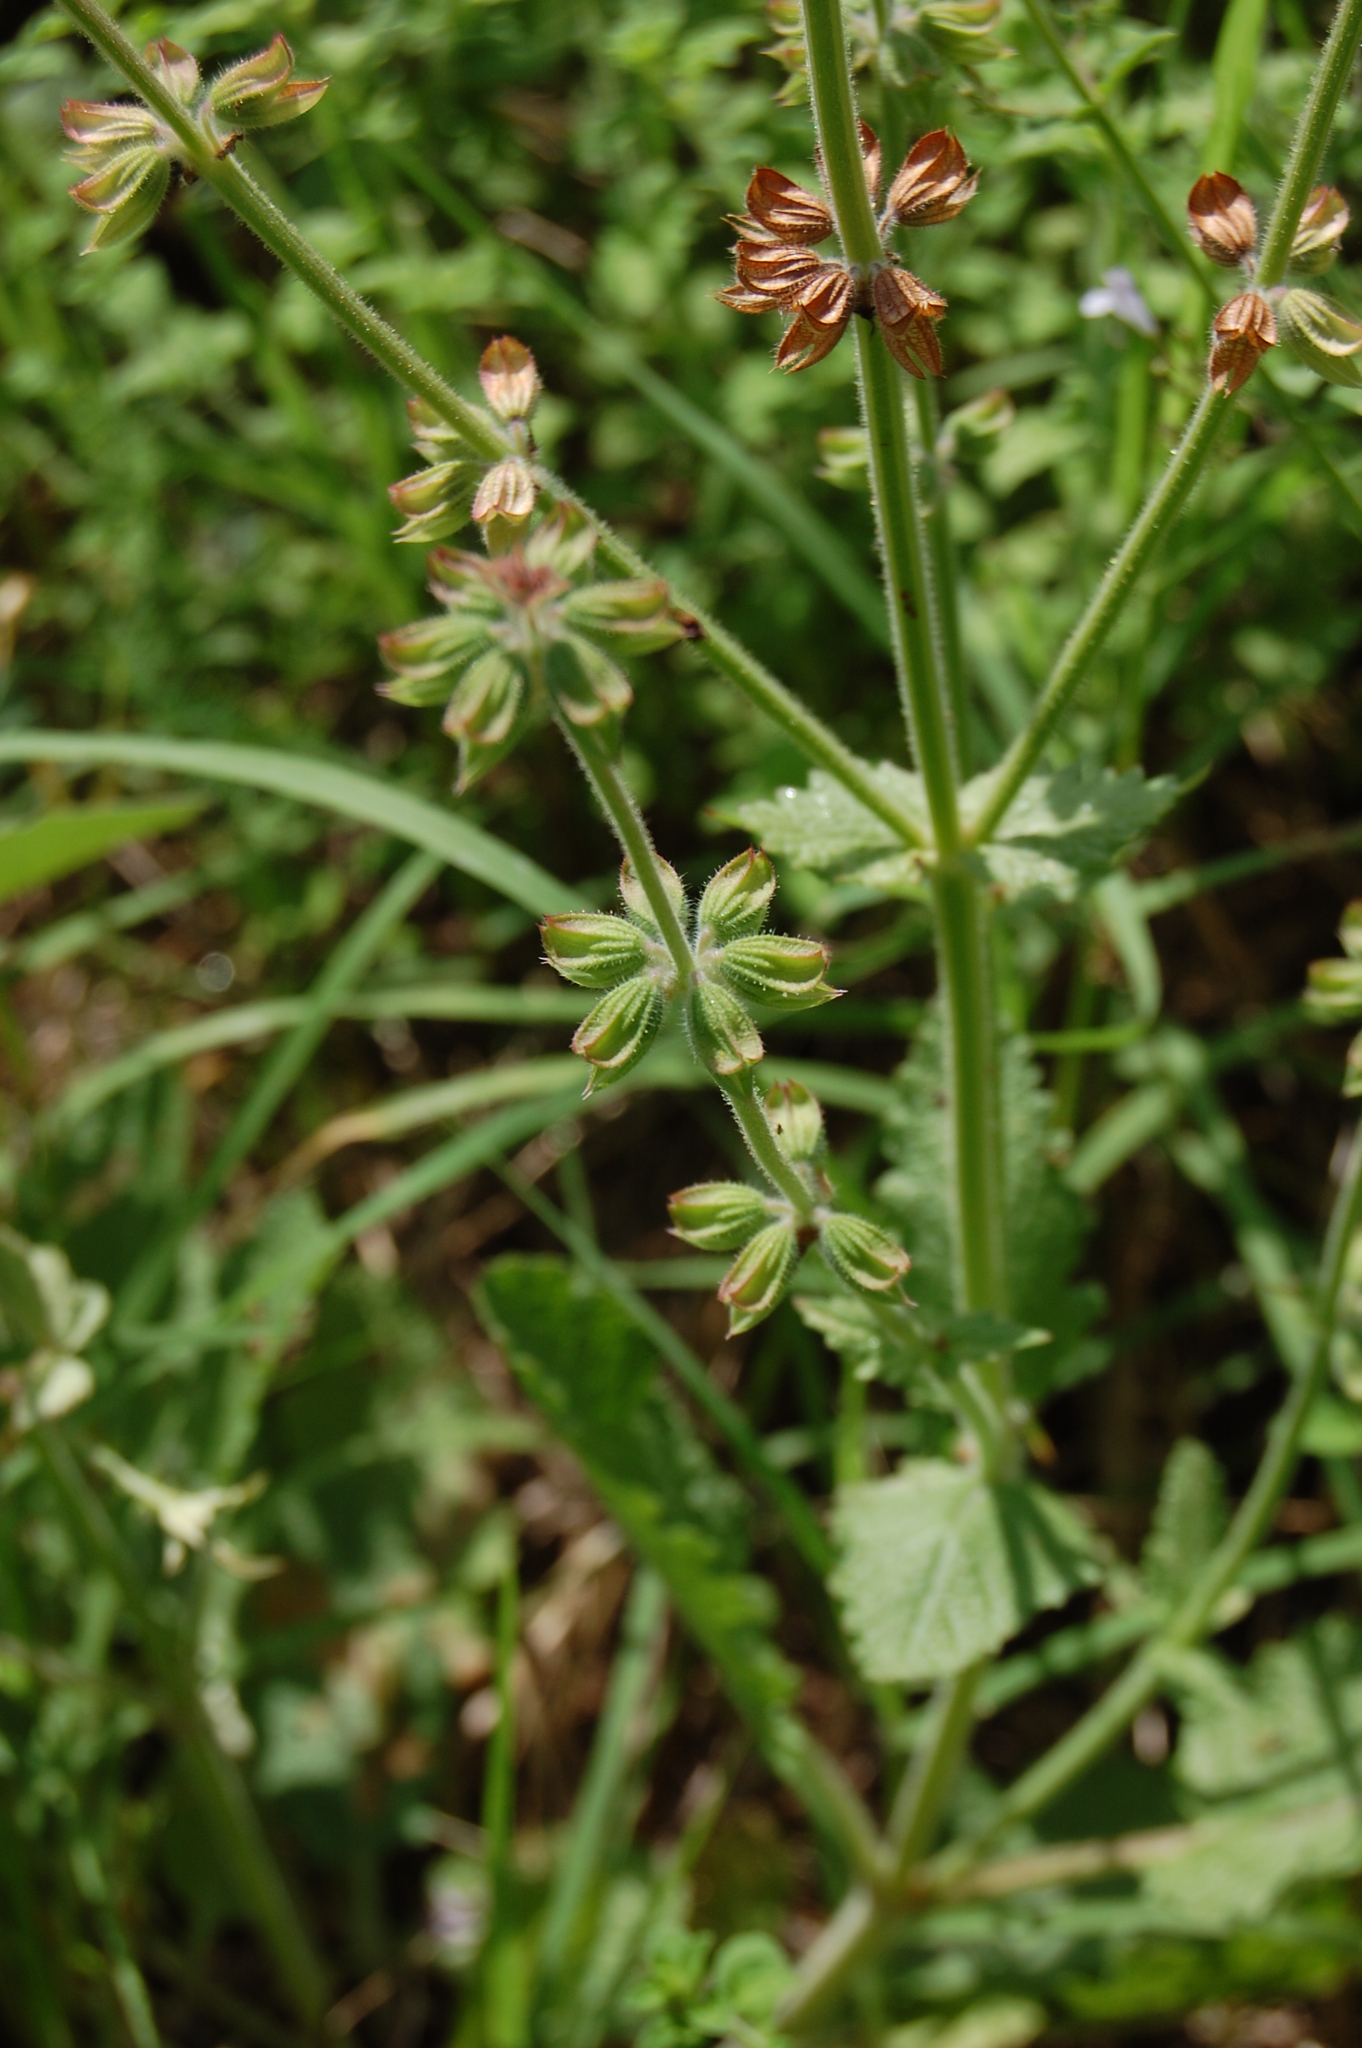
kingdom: Plantae
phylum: Tracheophyta
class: Magnoliopsida
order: Lamiales
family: Lamiaceae
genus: Salvia
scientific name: Salvia verbenaca
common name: Wild clary
